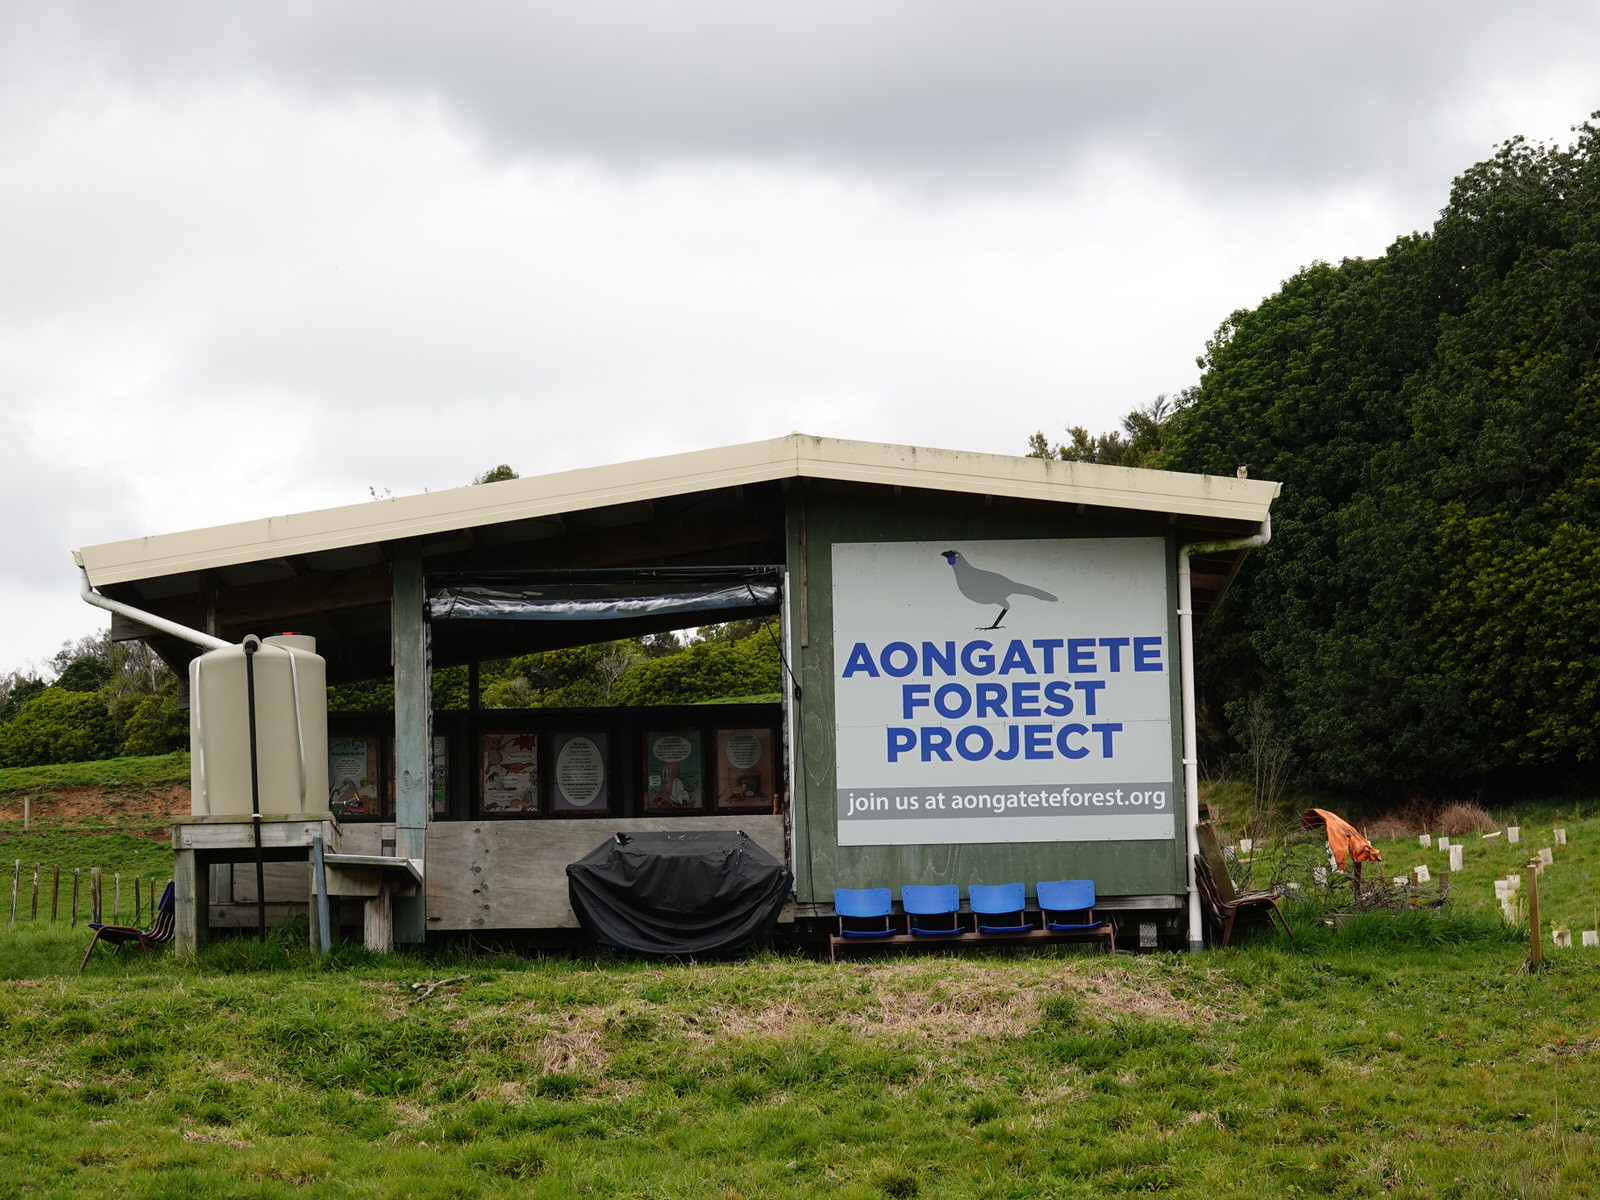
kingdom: Animalia
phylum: Chordata
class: Aves
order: Coraciiformes
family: Alcedinidae
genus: Todiramphus
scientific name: Todiramphus sanctus
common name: Sacred kingfisher
